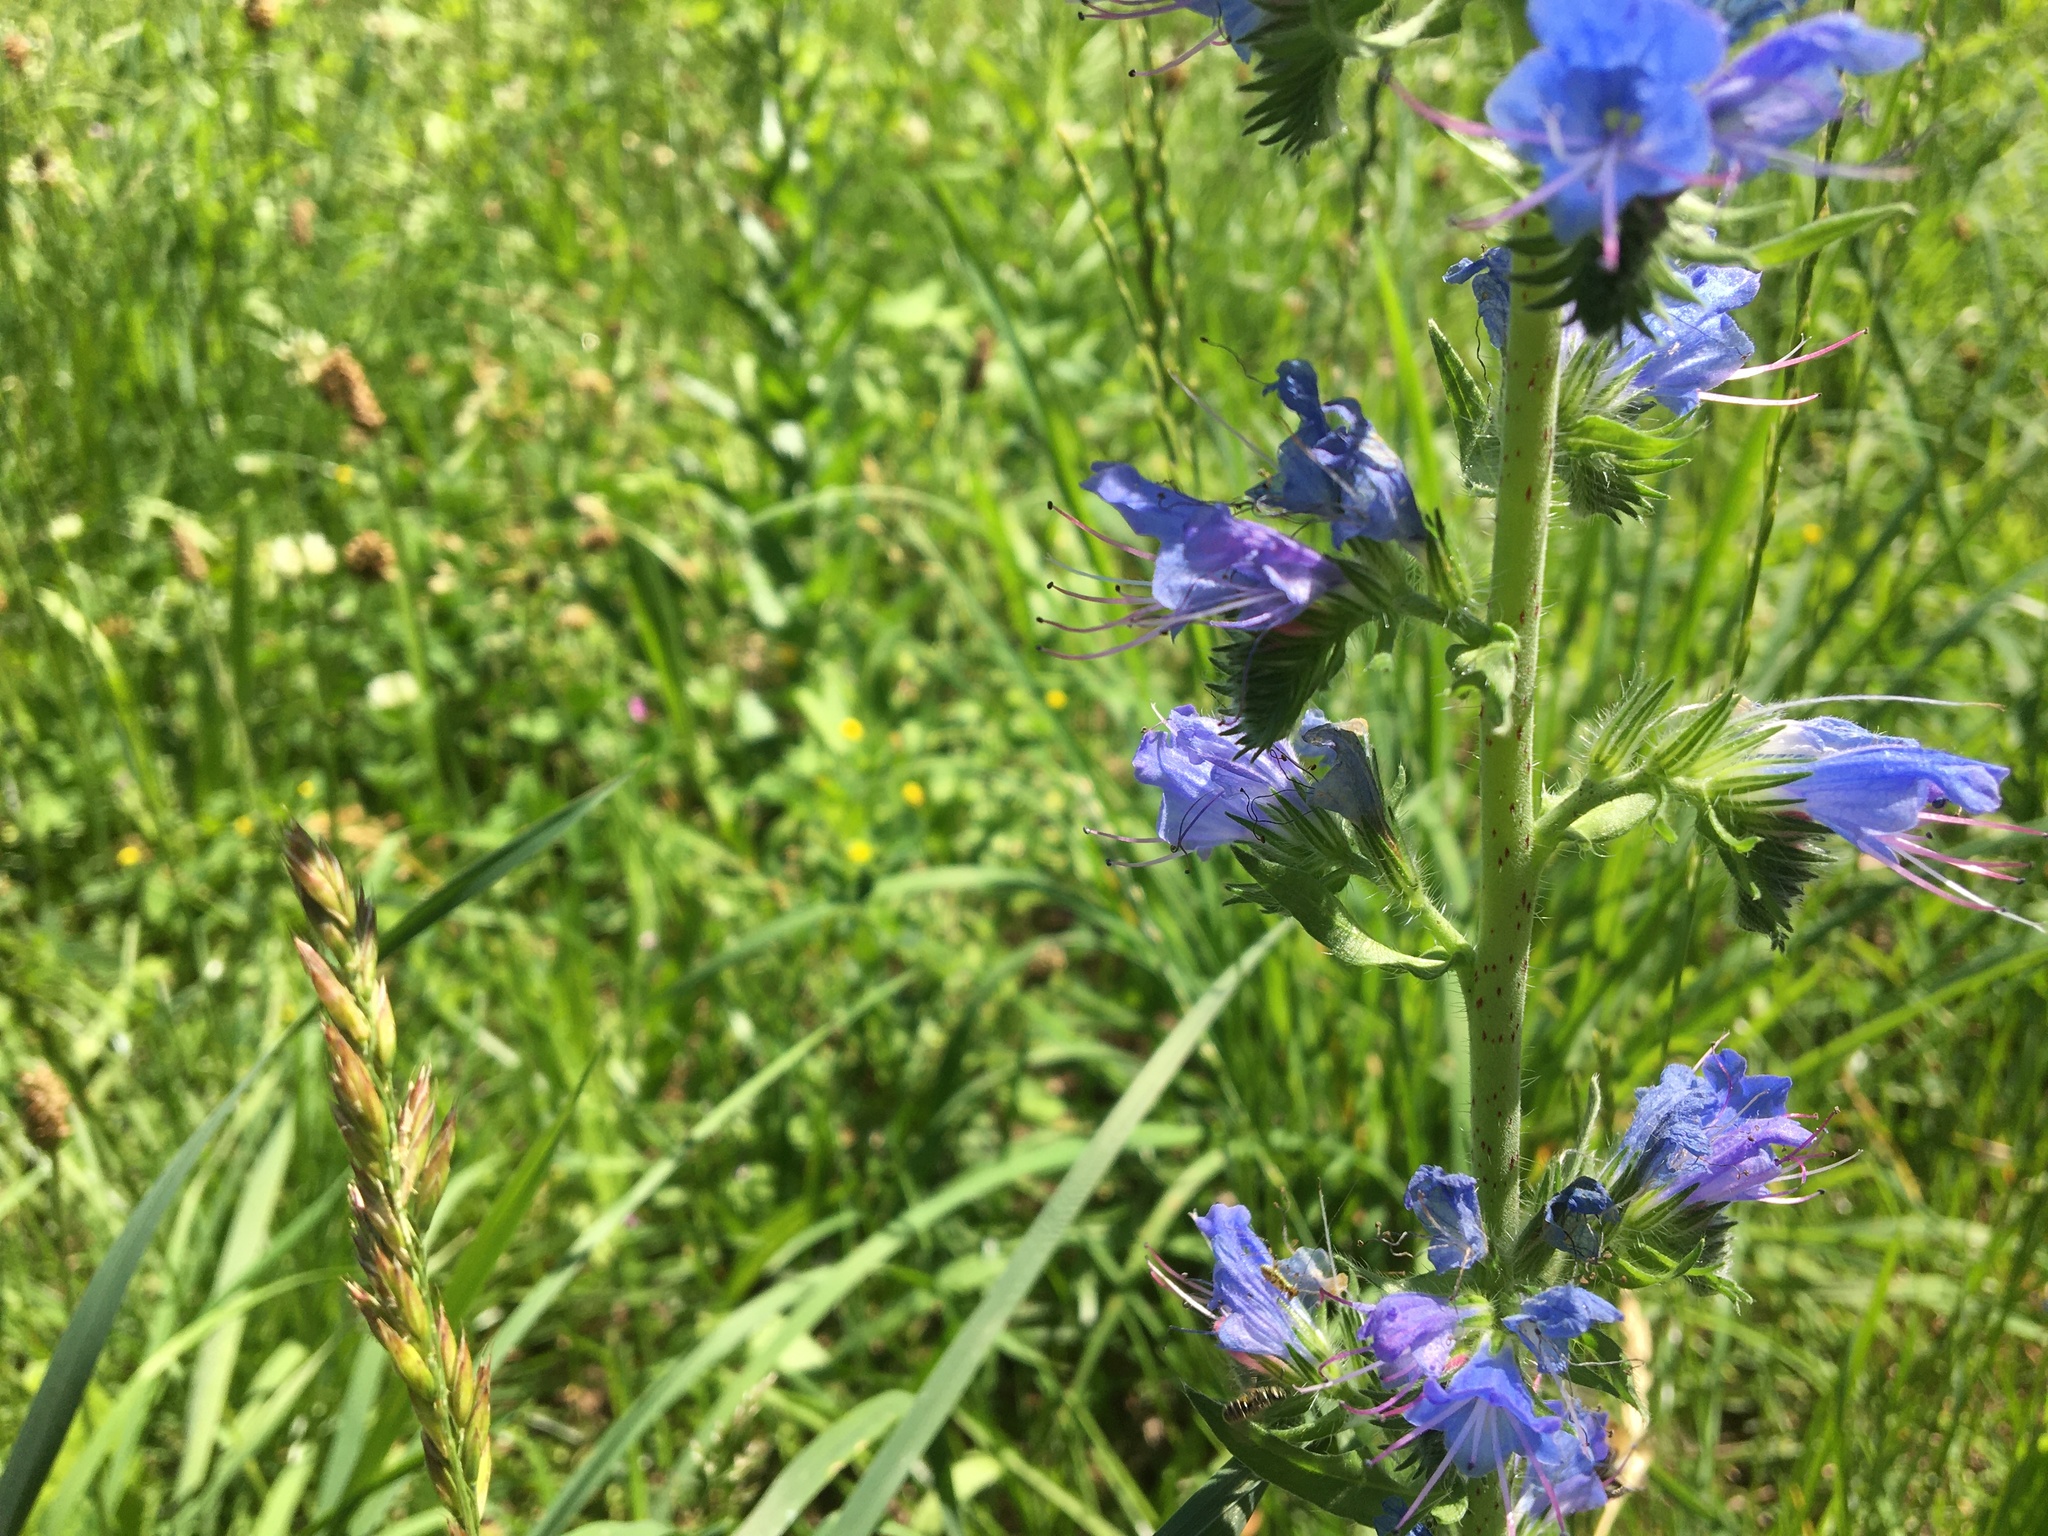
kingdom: Plantae
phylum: Tracheophyta
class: Magnoliopsida
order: Boraginales
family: Boraginaceae
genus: Echium
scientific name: Echium vulgare
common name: Common viper's bugloss
